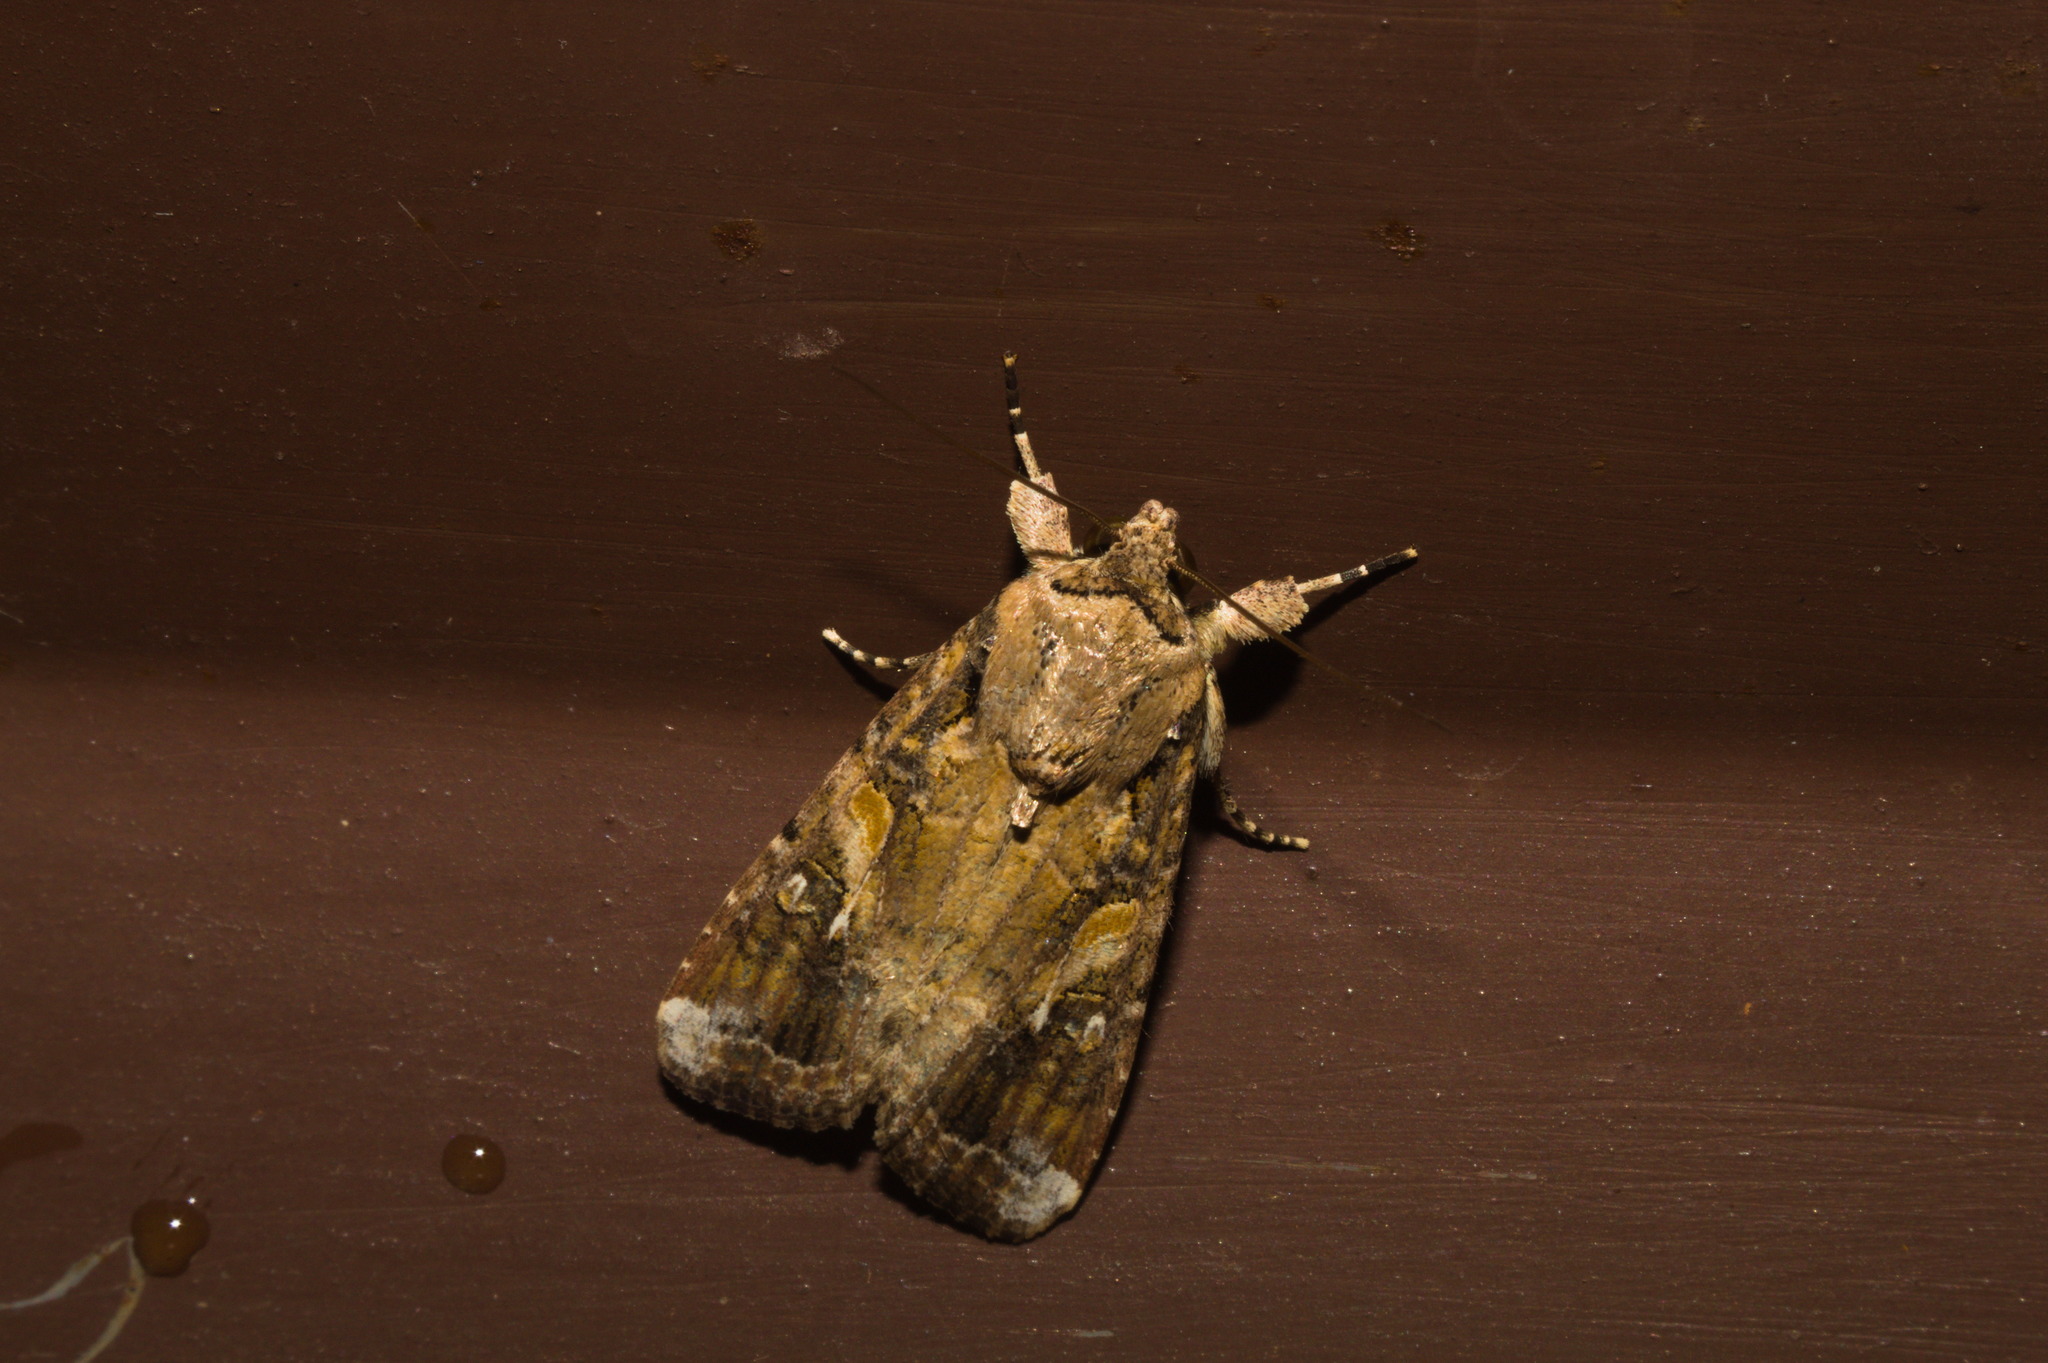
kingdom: Animalia
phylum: Arthropoda
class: Insecta
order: Lepidoptera
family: Noctuidae
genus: Spodoptera
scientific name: Spodoptera frugiperda
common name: Fall armyworm
